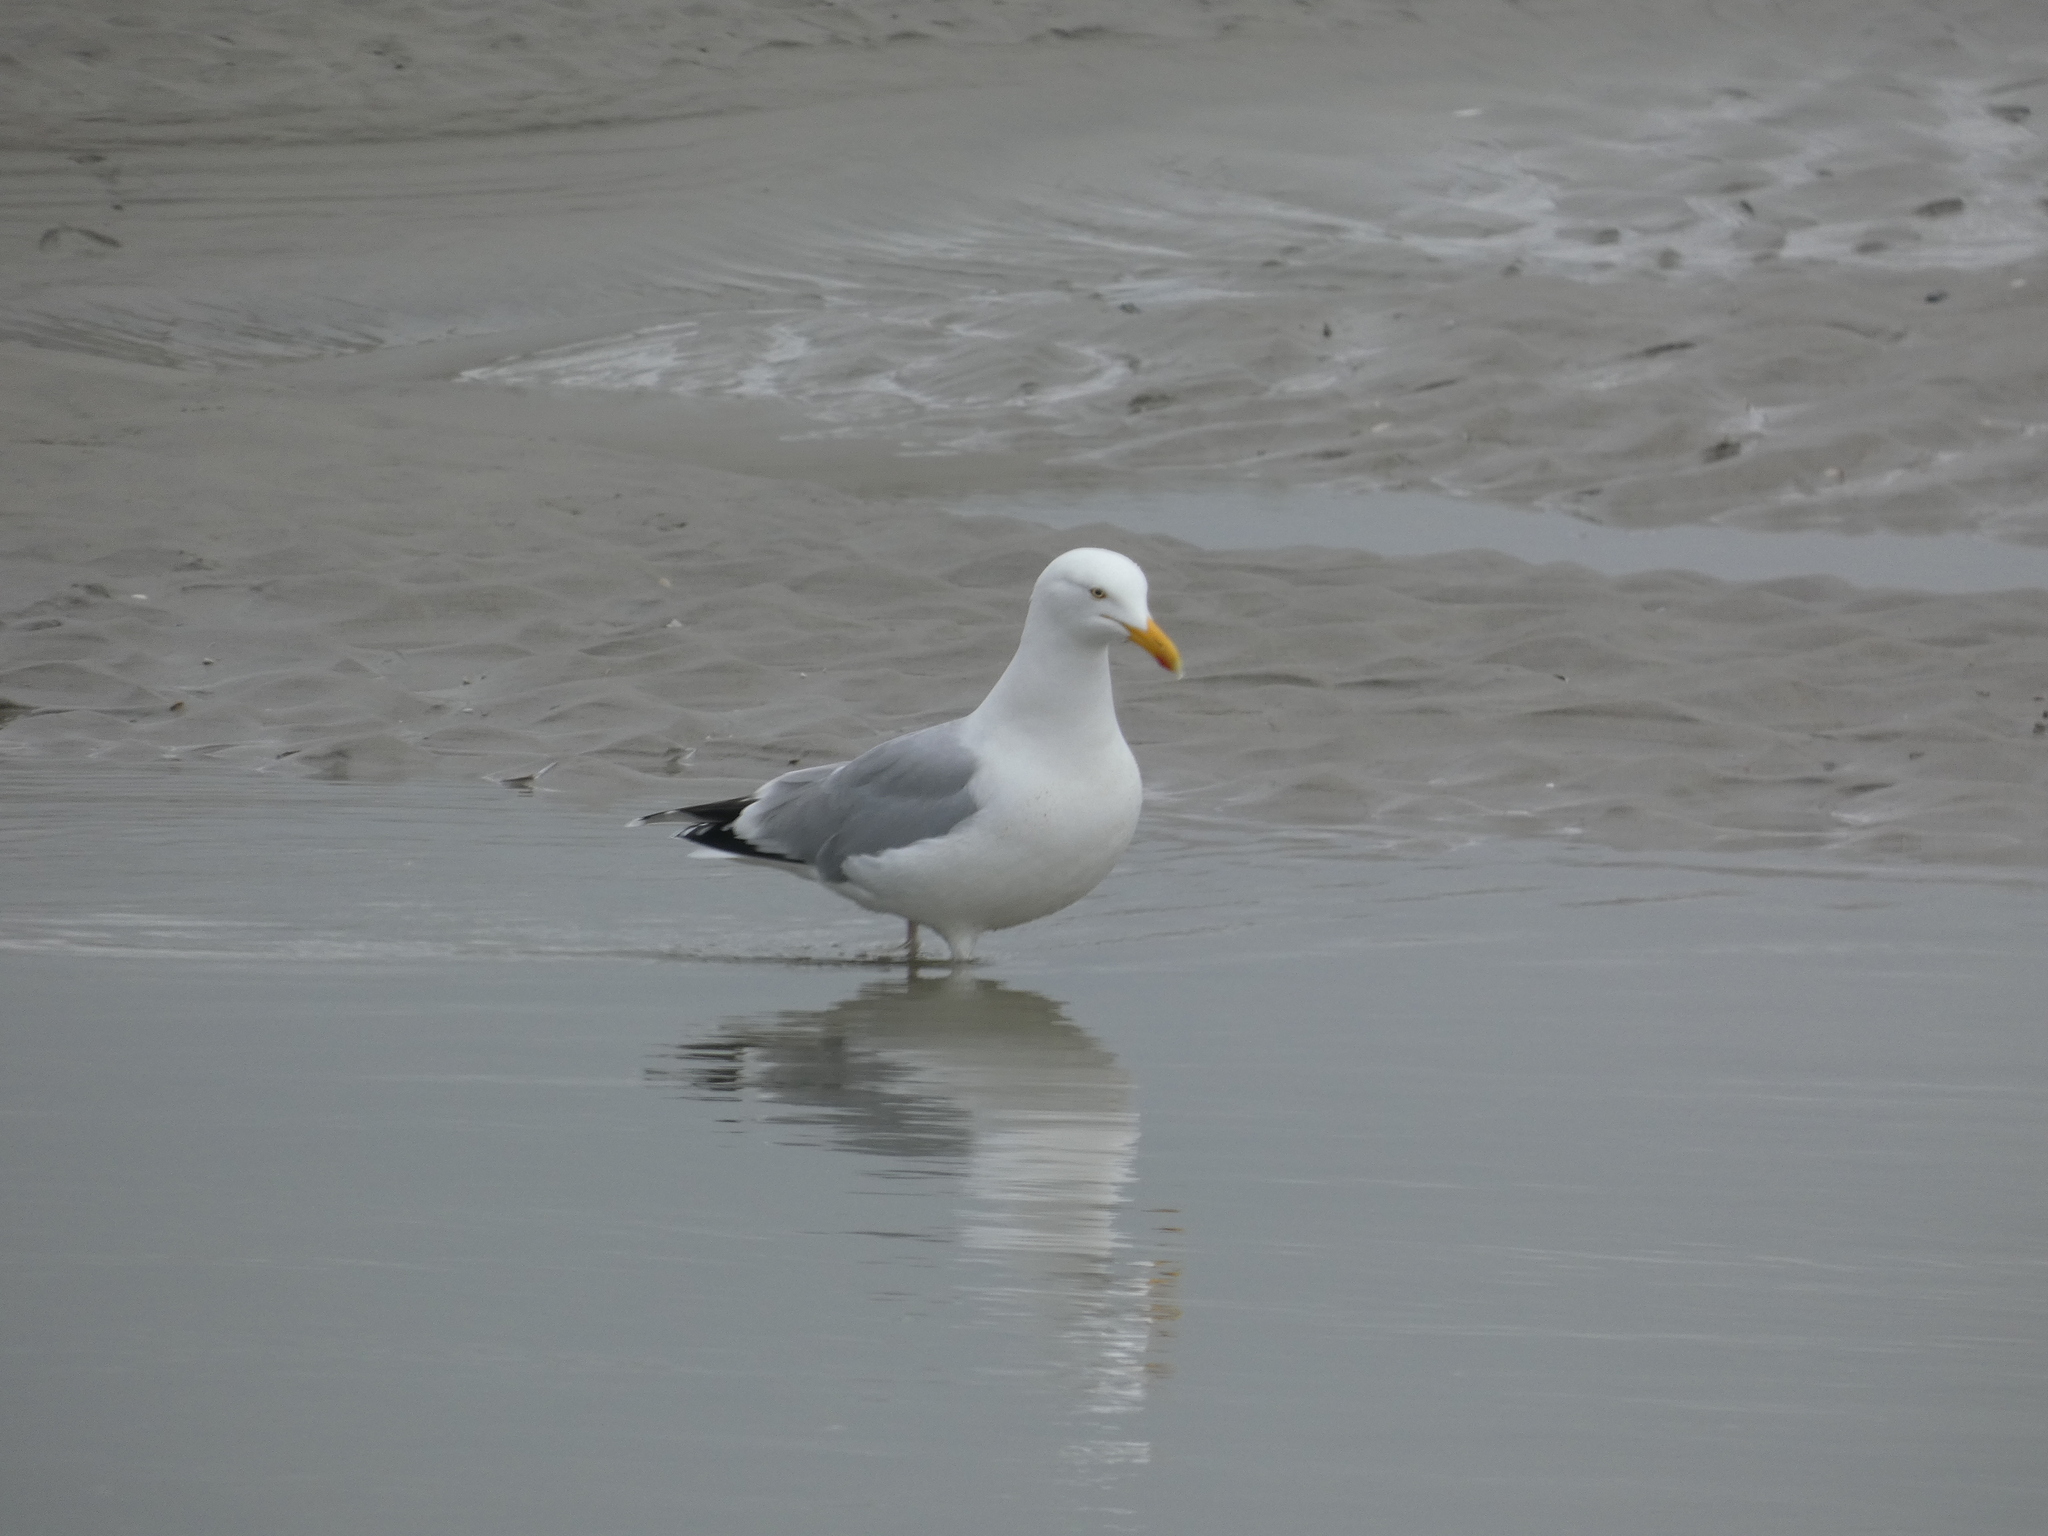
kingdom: Animalia
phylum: Chordata
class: Aves
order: Charadriiformes
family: Laridae
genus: Larus
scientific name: Larus argentatus
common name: Herring gull
